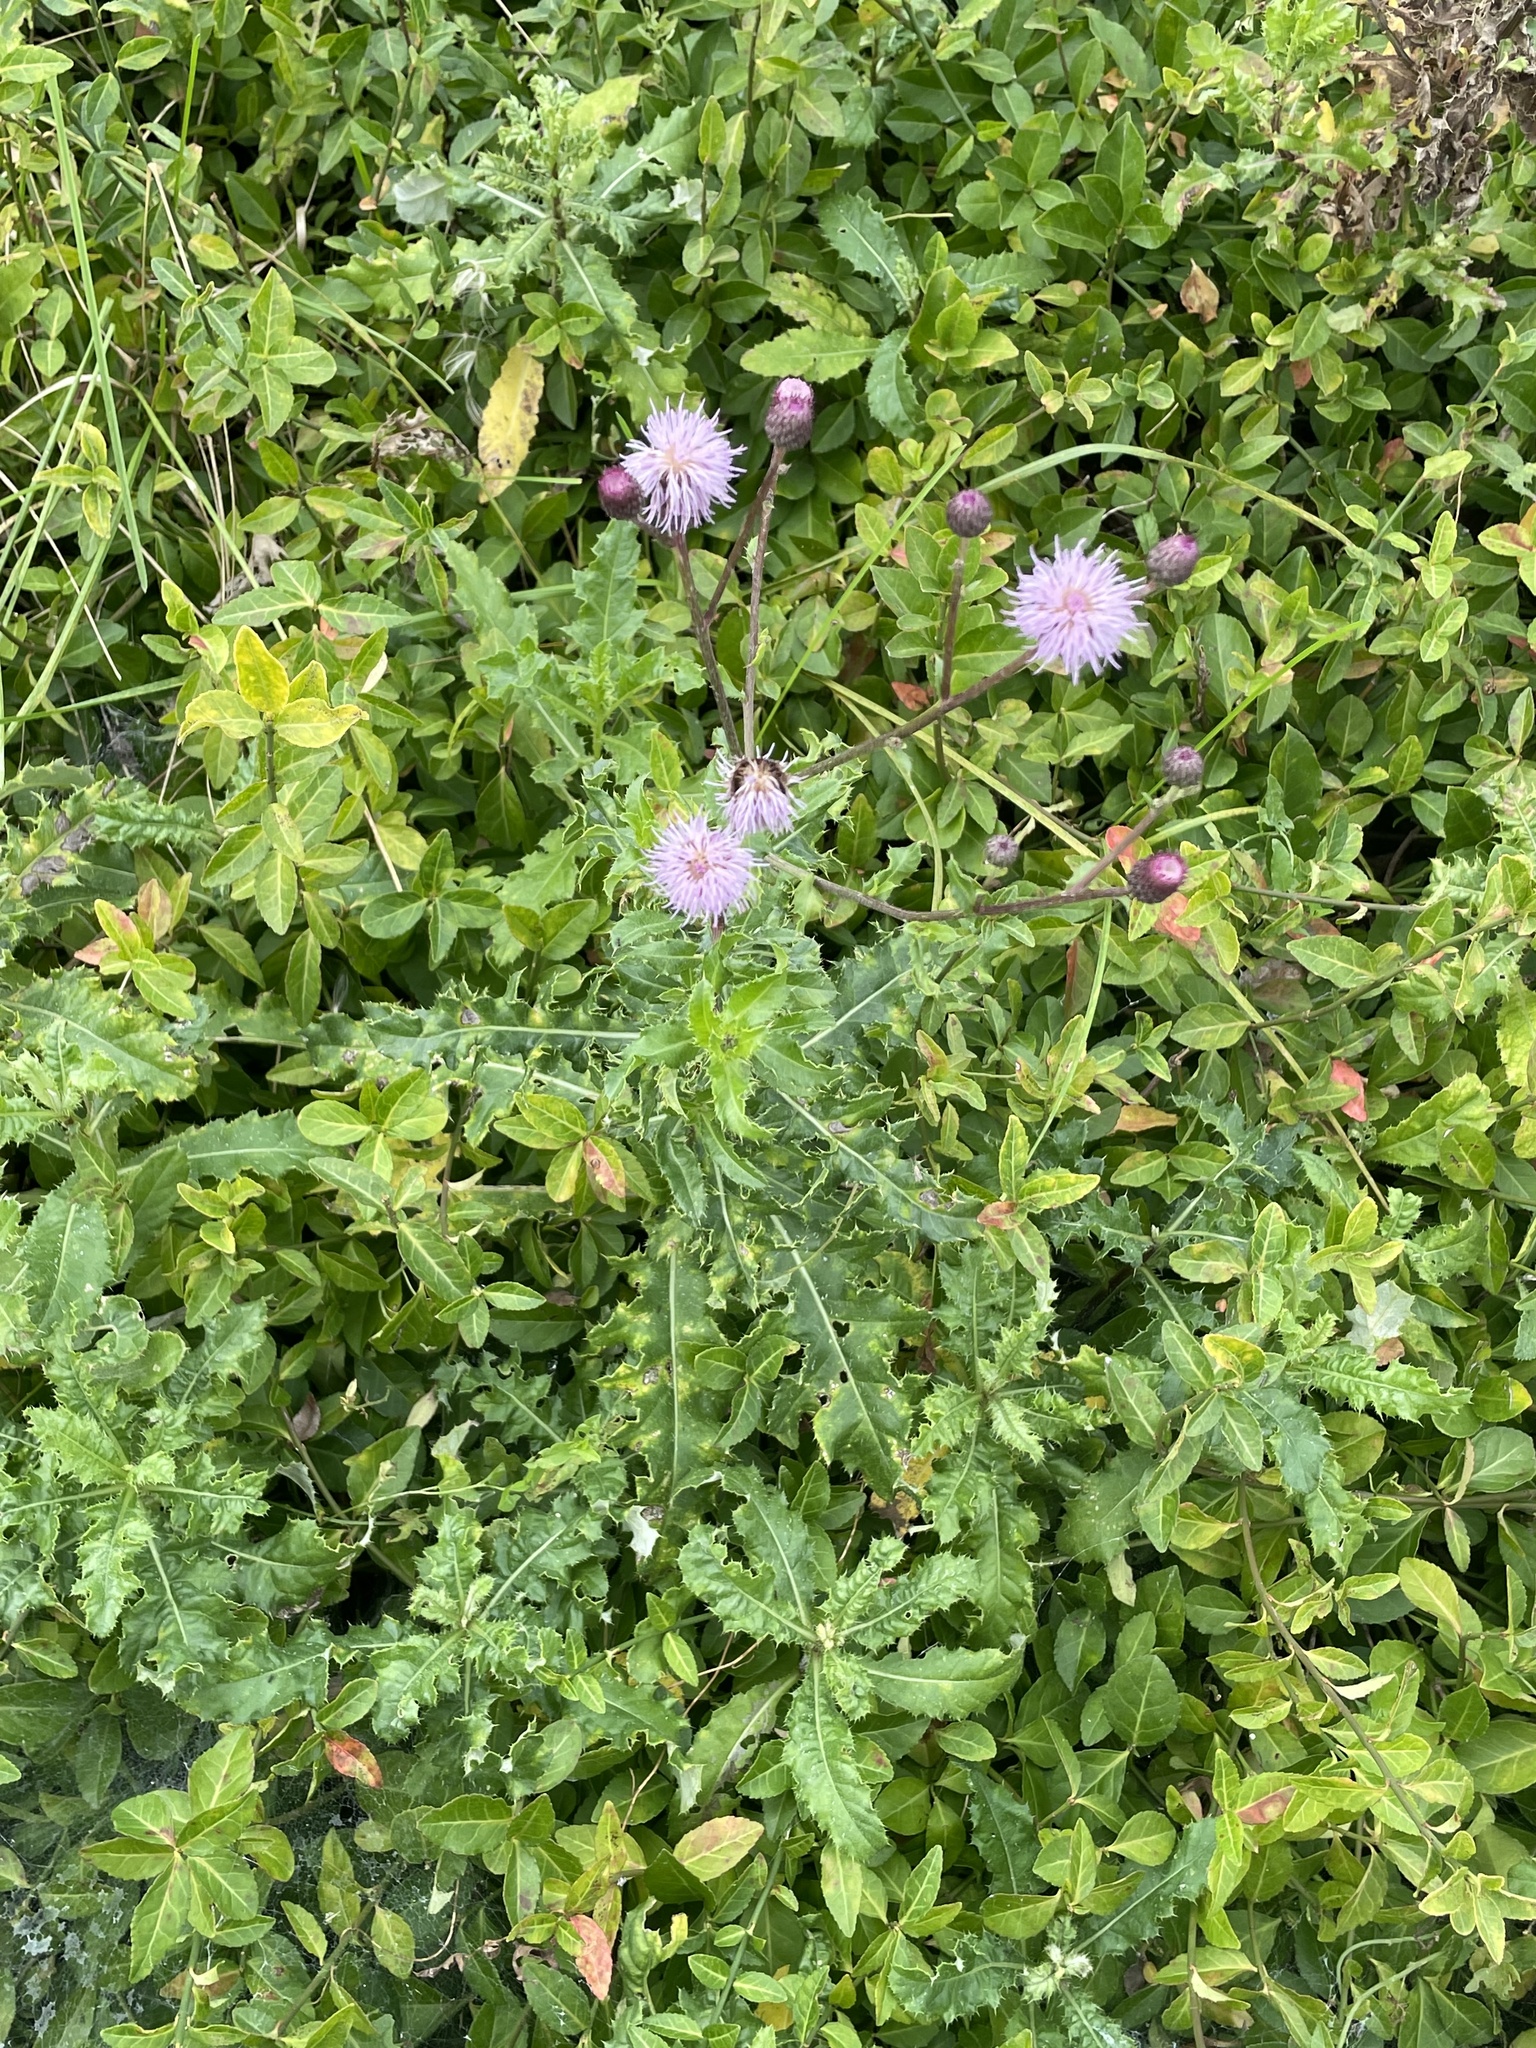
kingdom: Plantae
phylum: Tracheophyta
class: Magnoliopsida
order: Asterales
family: Asteraceae
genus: Cirsium
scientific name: Cirsium arvense
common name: Creeping thistle
